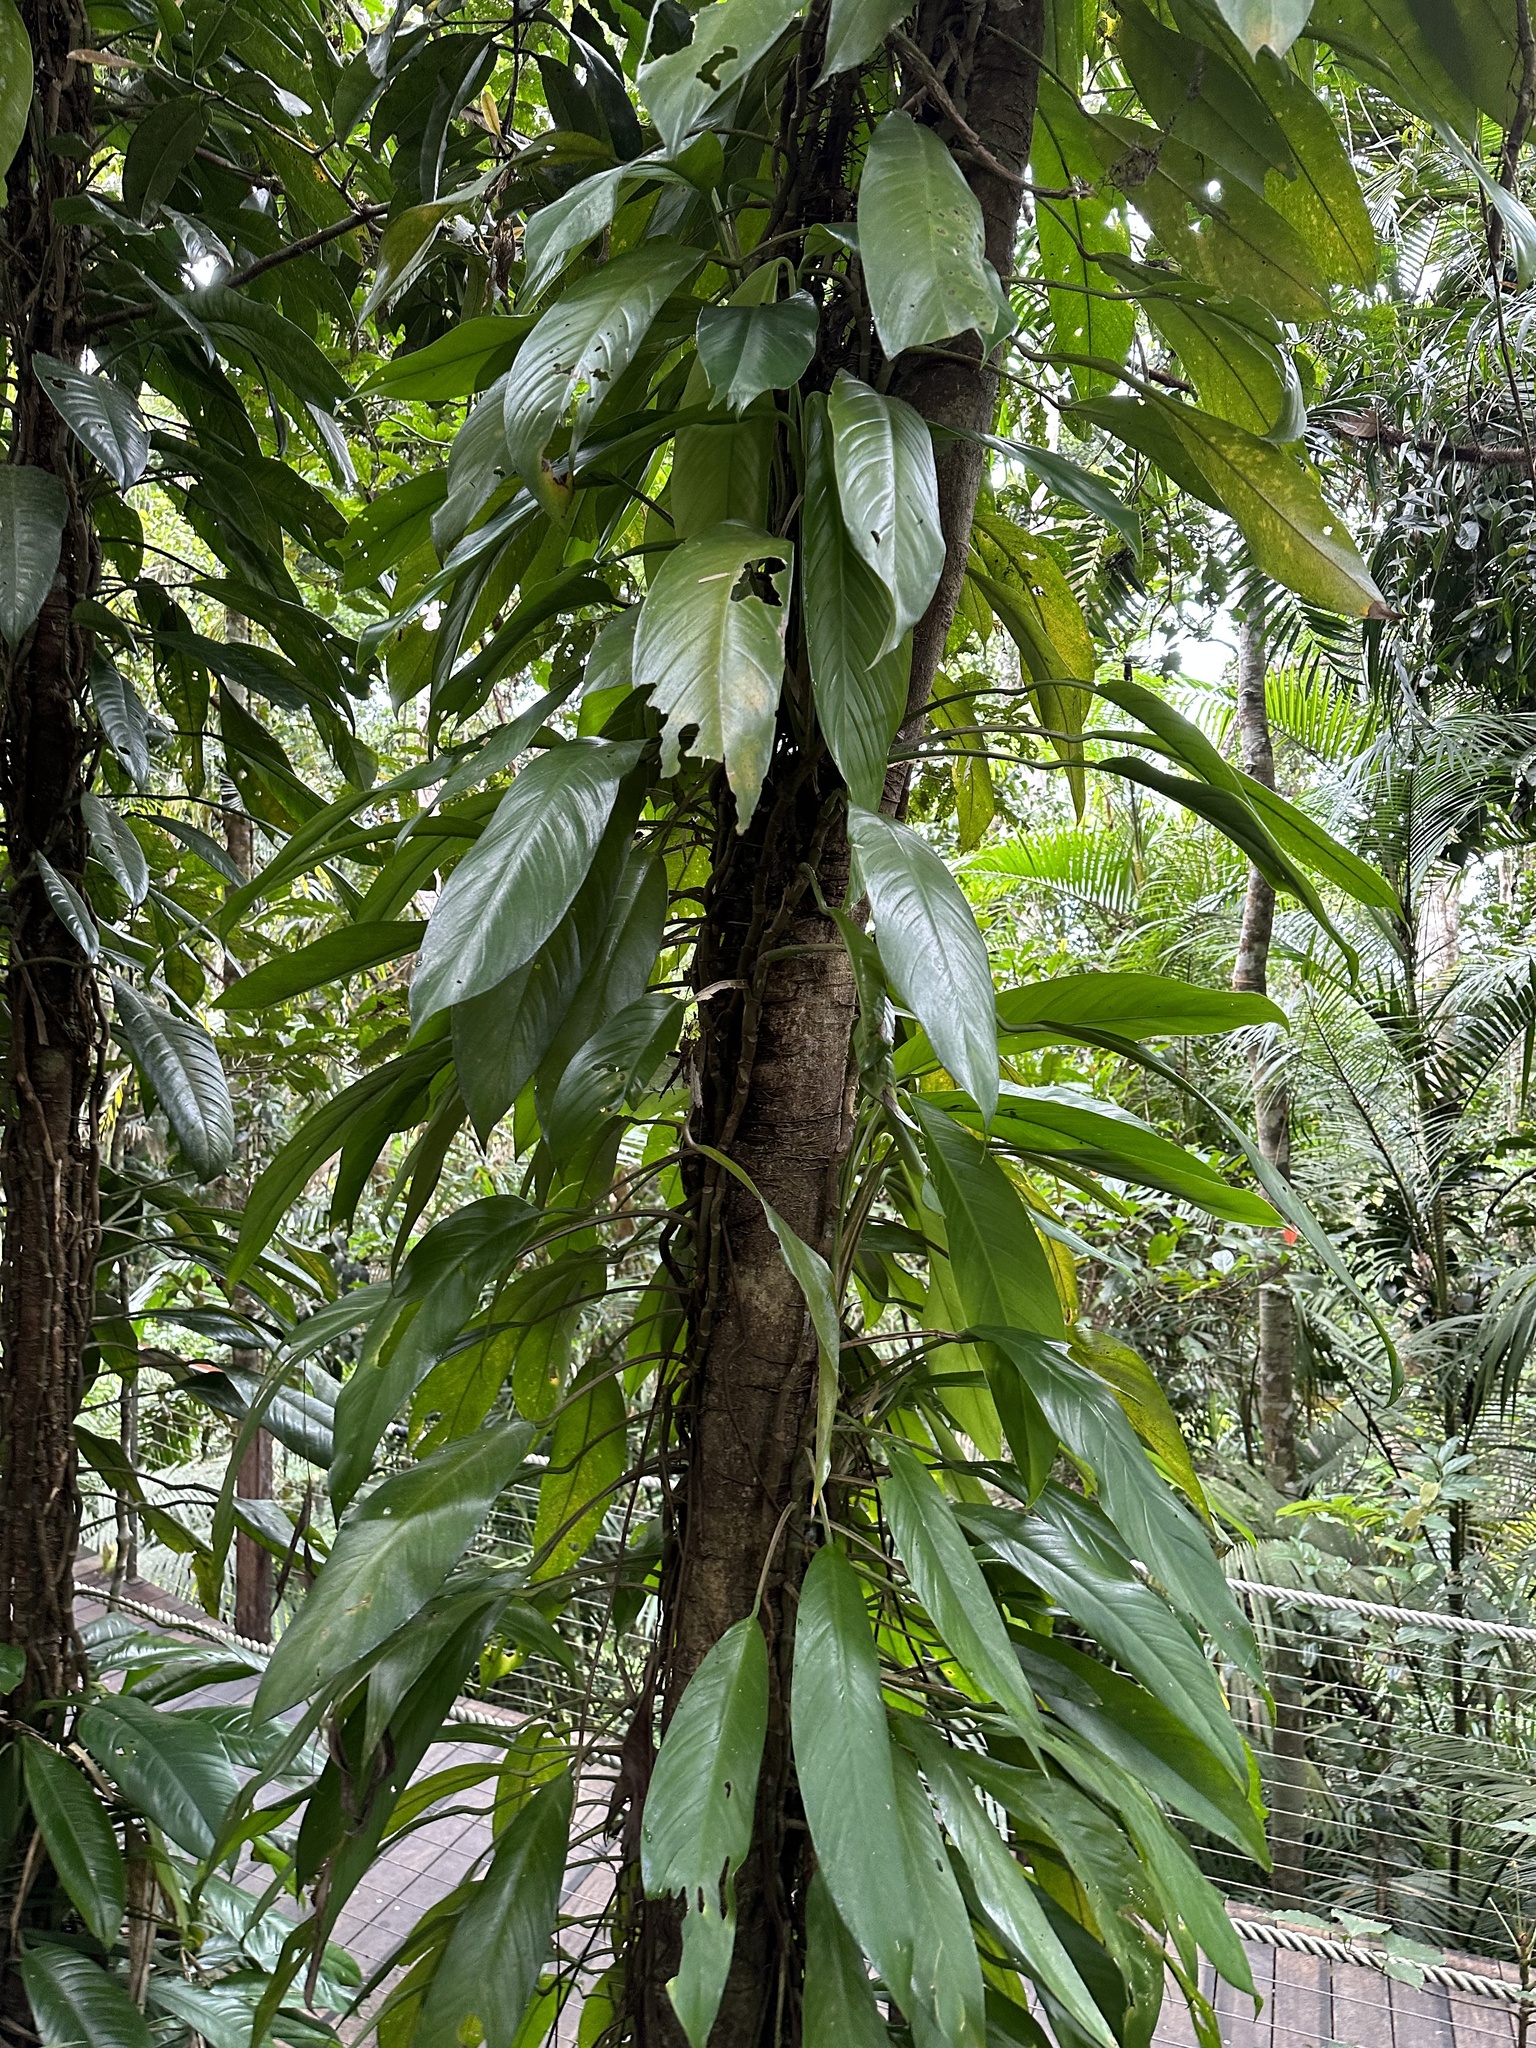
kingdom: Plantae
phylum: Tracheophyta
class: Liliopsida
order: Alismatales
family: Araceae
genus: Rhaphidophora
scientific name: Rhaphidophora australasica
